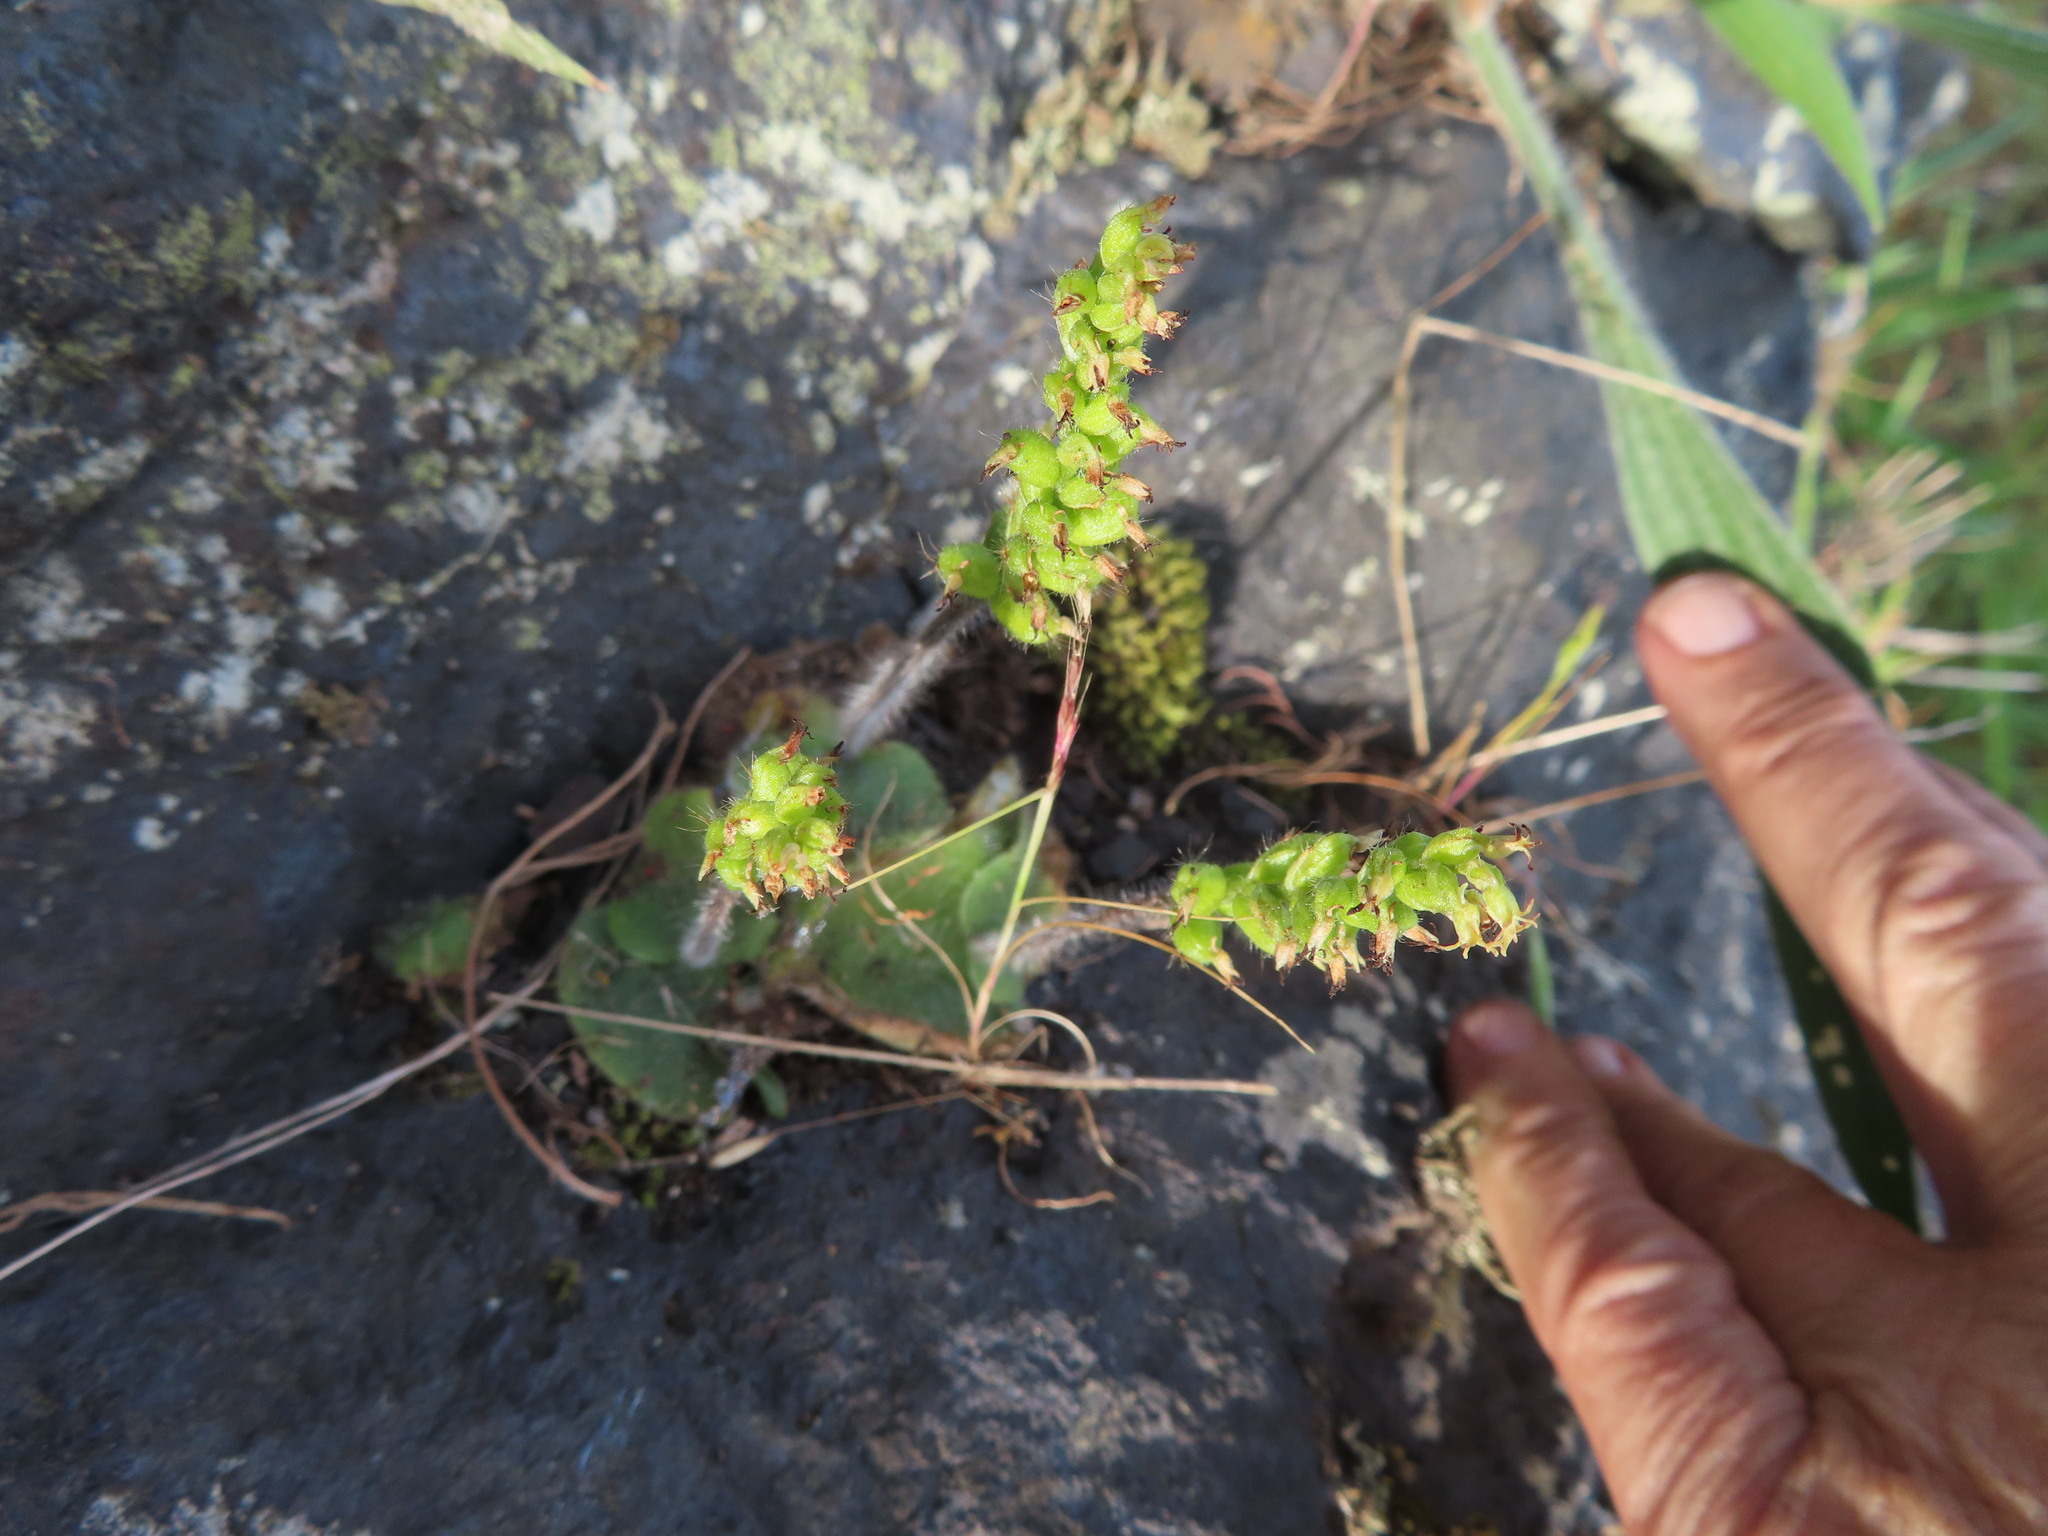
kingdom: Plantae
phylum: Tracheophyta
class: Liliopsida
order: Asparagales
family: Orchidaceae
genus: Holothrix
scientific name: Holothrix villosa
